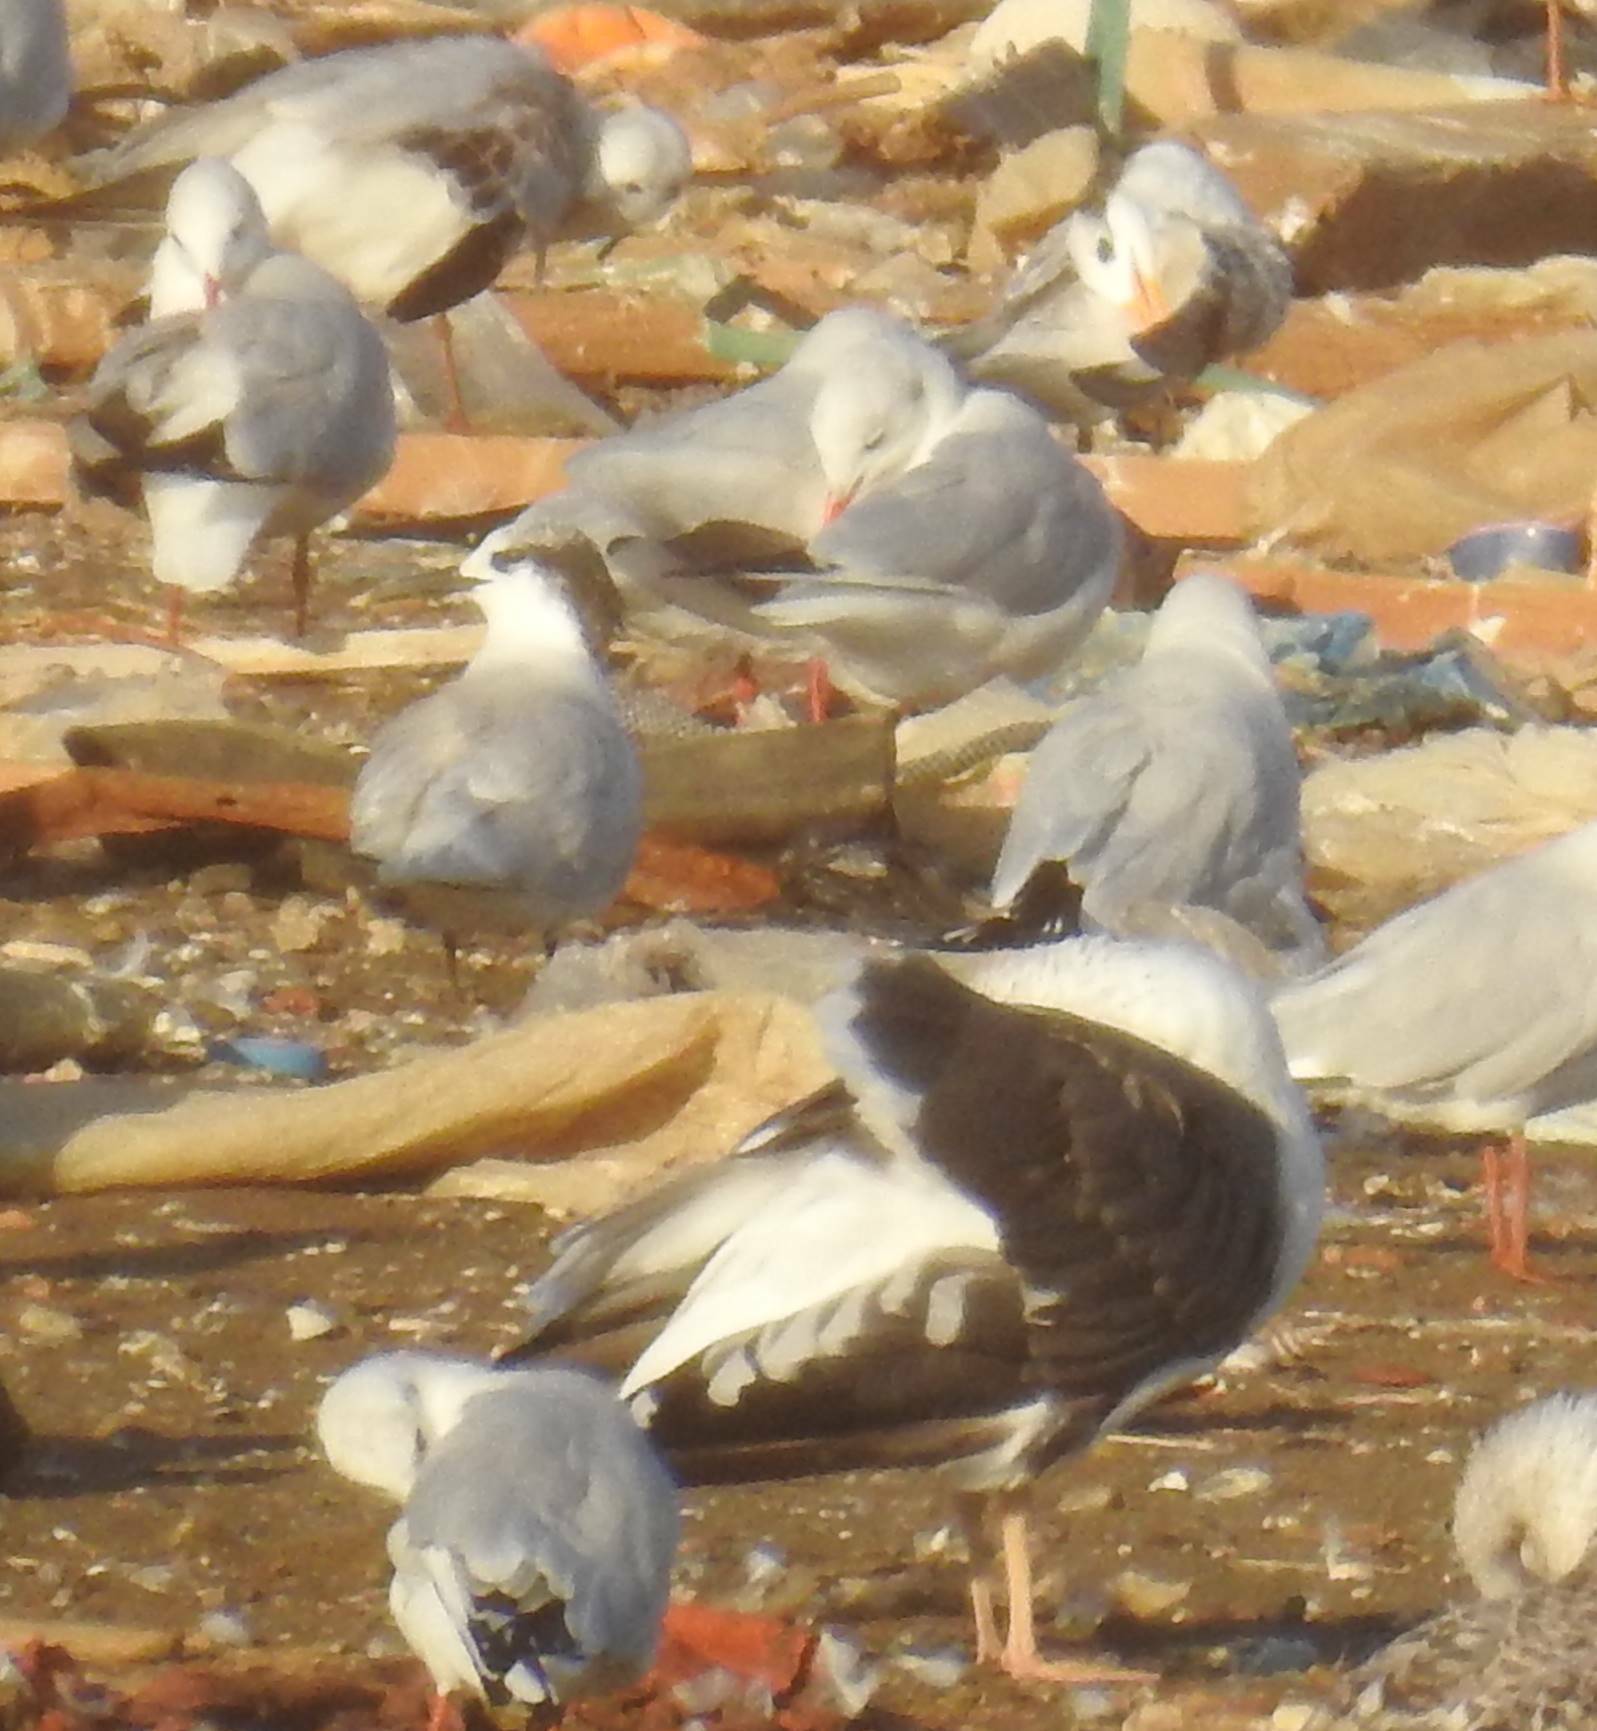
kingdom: Animalia
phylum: Chordata
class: Aves
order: Charadriiformes
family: Laridae
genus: Larus
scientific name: Larus fuscus
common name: Lesser black-backed gull
